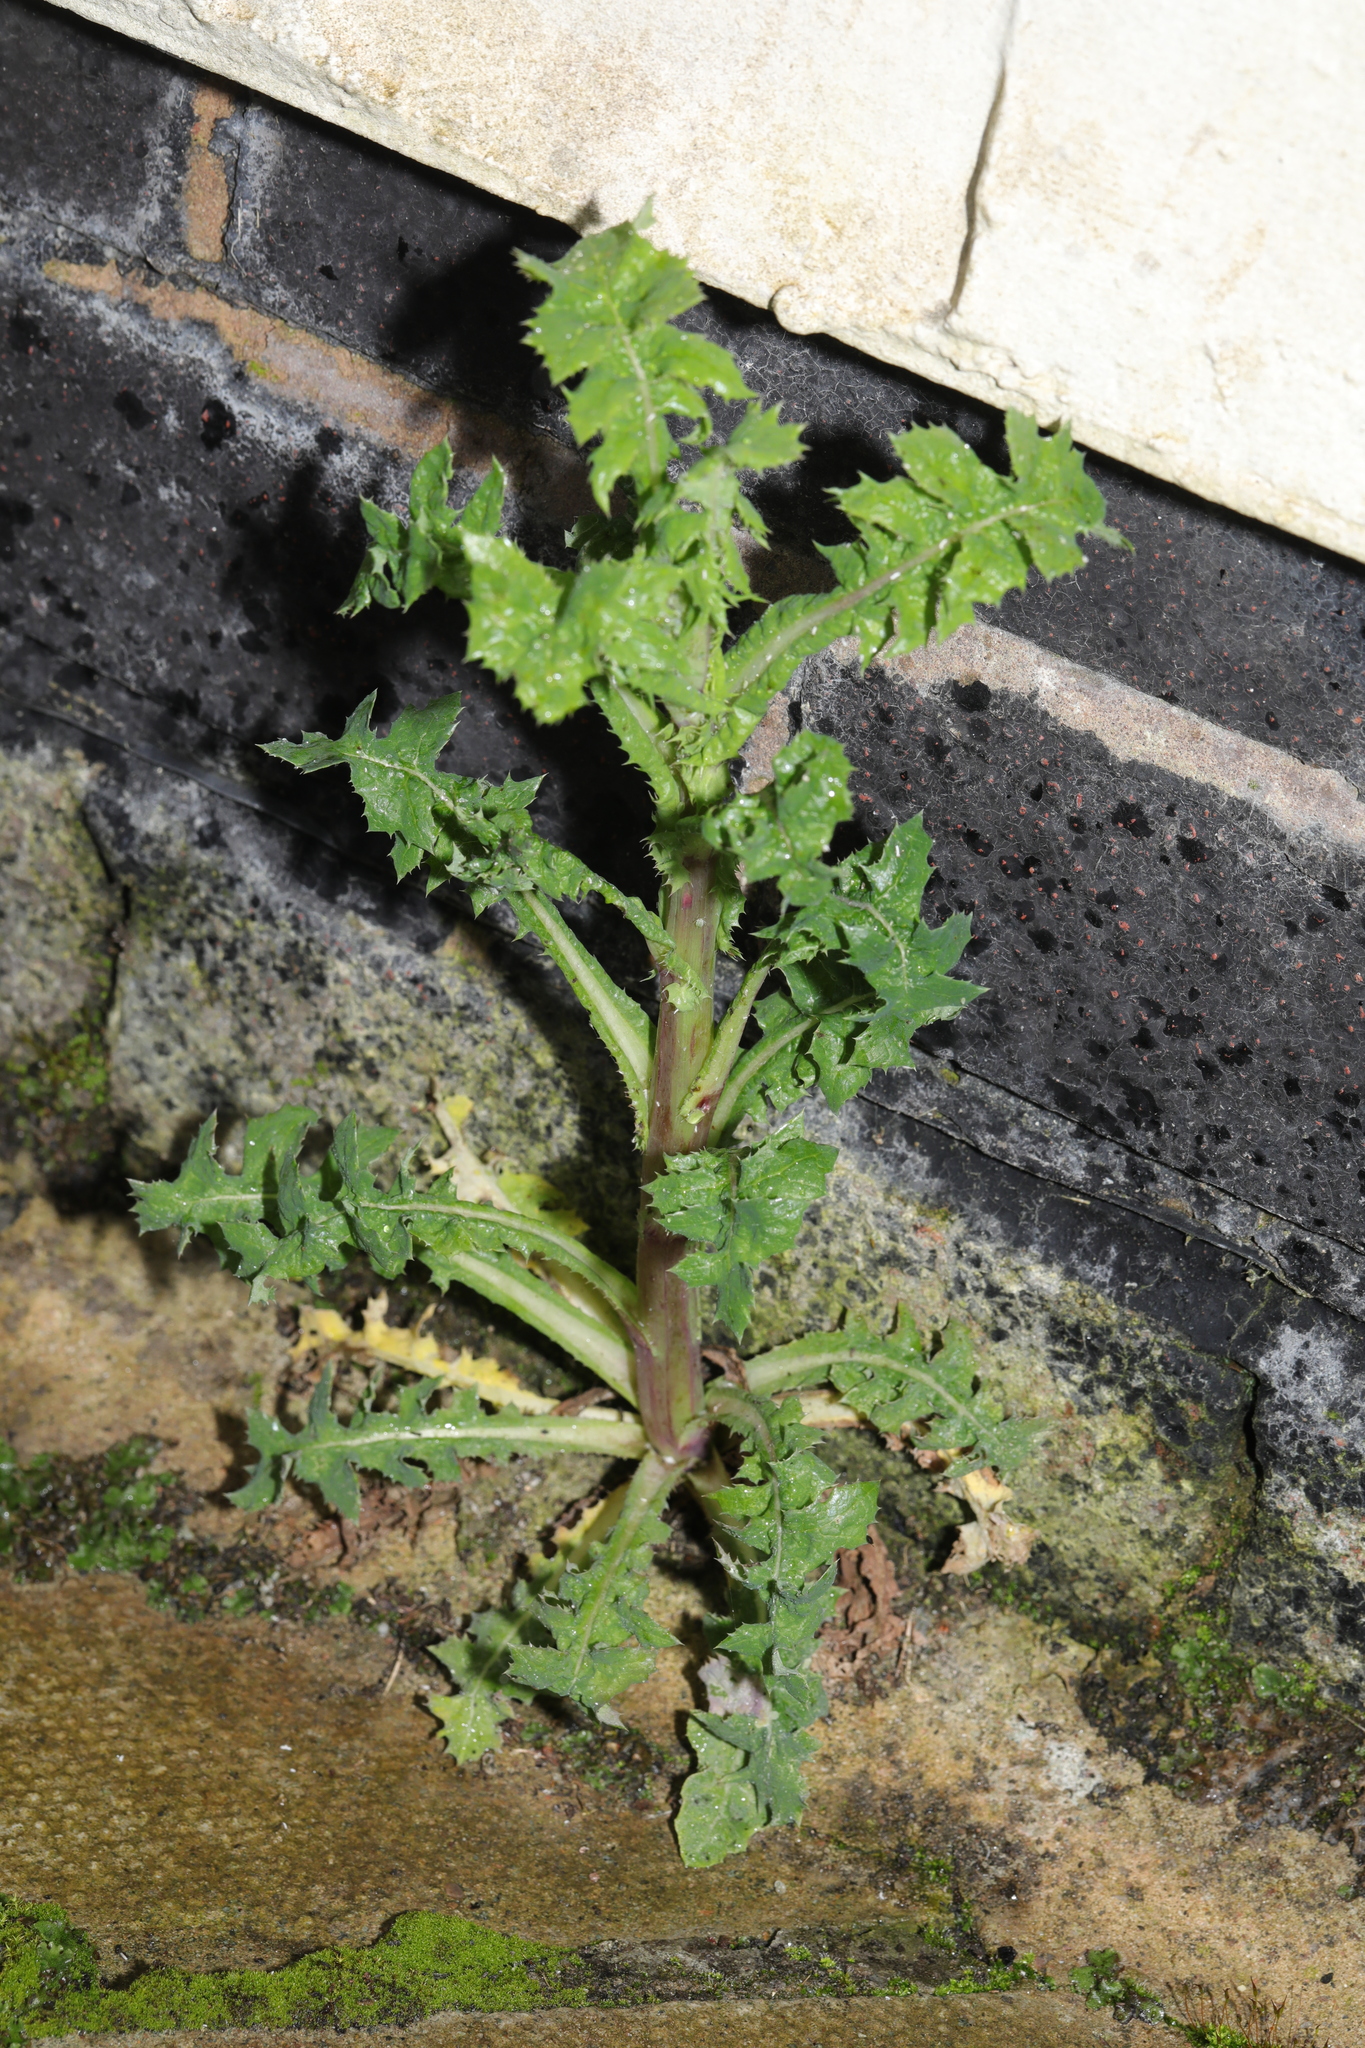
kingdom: Plantae
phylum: Tracheophyta
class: Magnoliopsida
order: Asterales
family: Asteraceae
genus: Sonchus
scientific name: Sonchus oleraceus
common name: Common sowthistle
